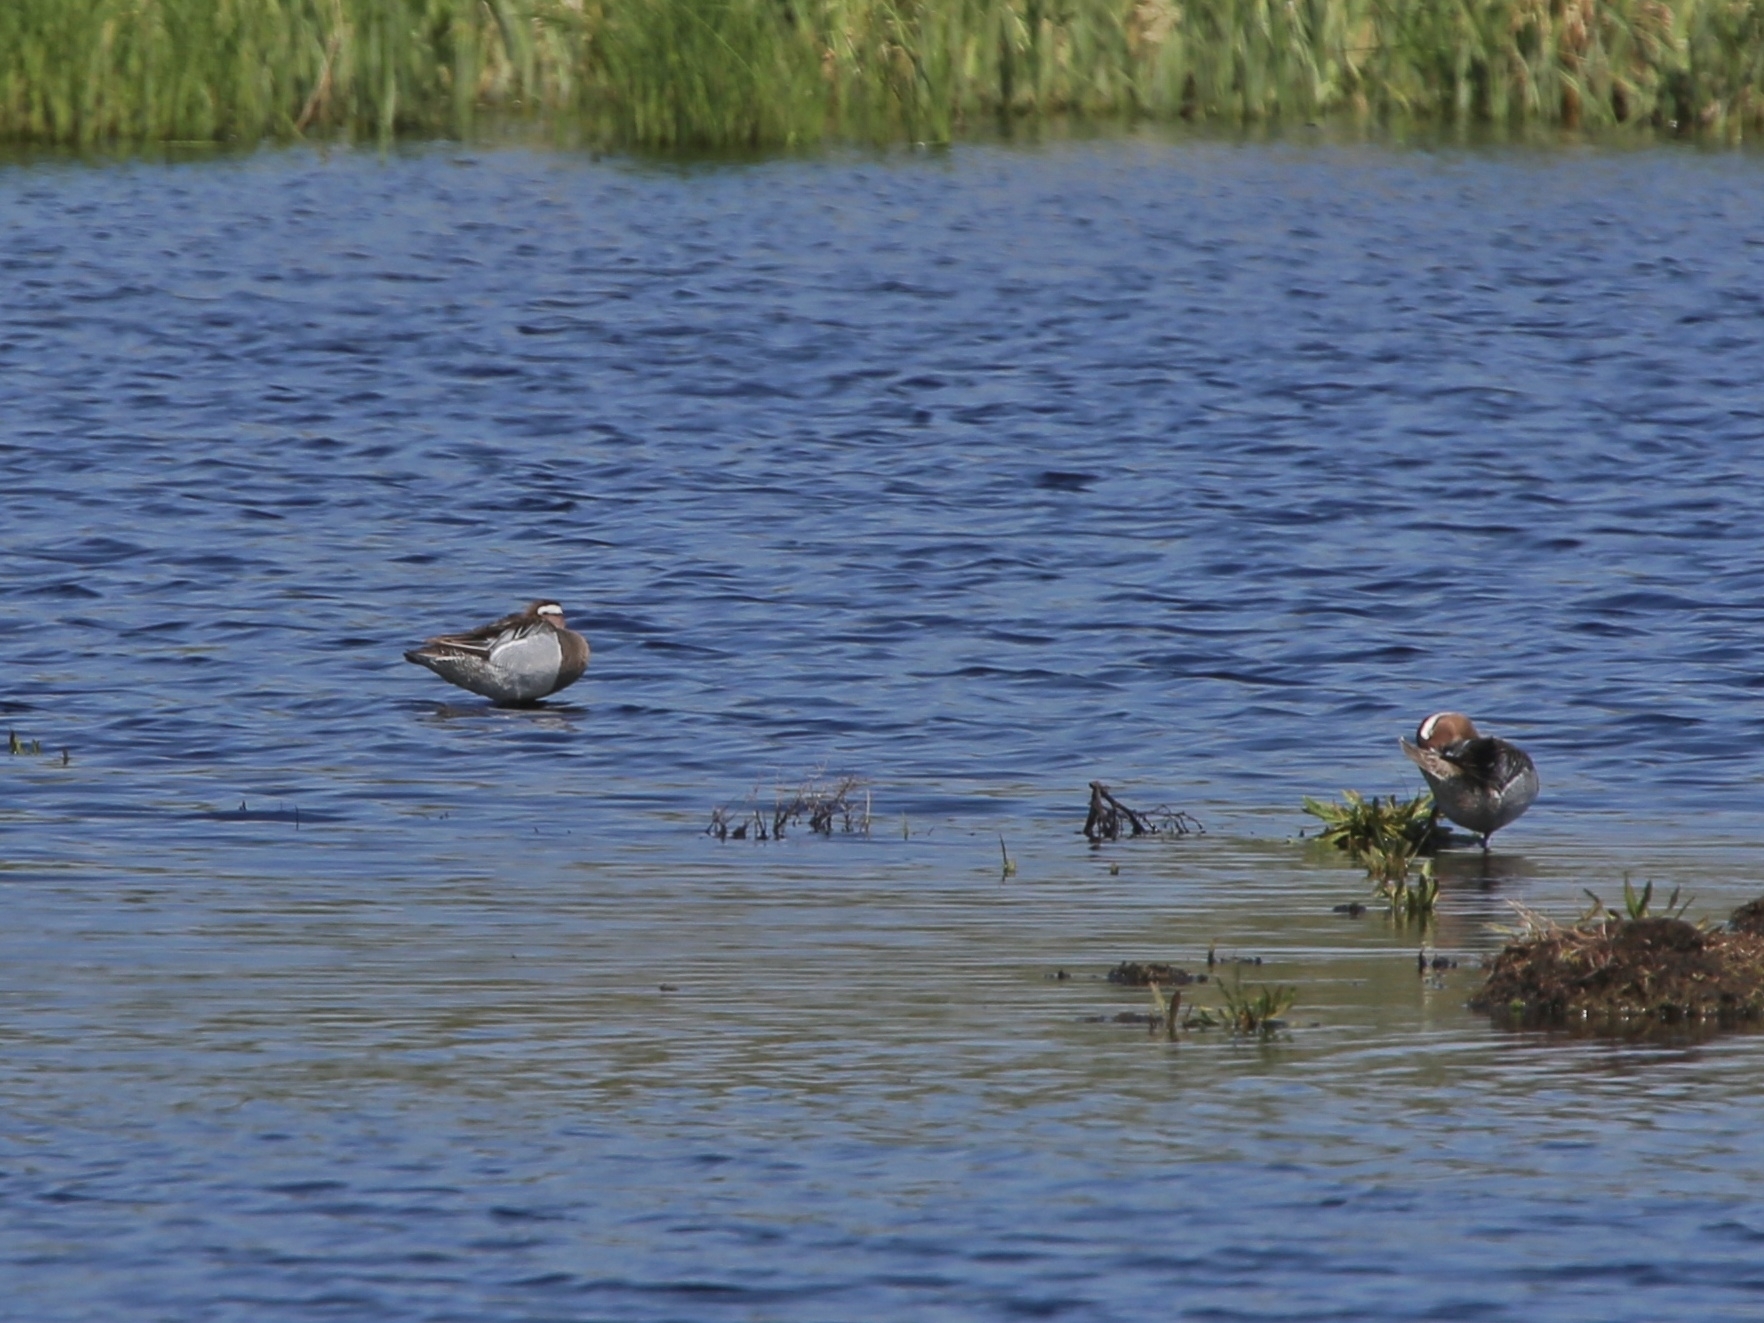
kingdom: Animalia
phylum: Chordata
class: Aves
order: Anseriformes
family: Anatidae
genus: Spatula
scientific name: Spatula querquedula
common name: Garganey
